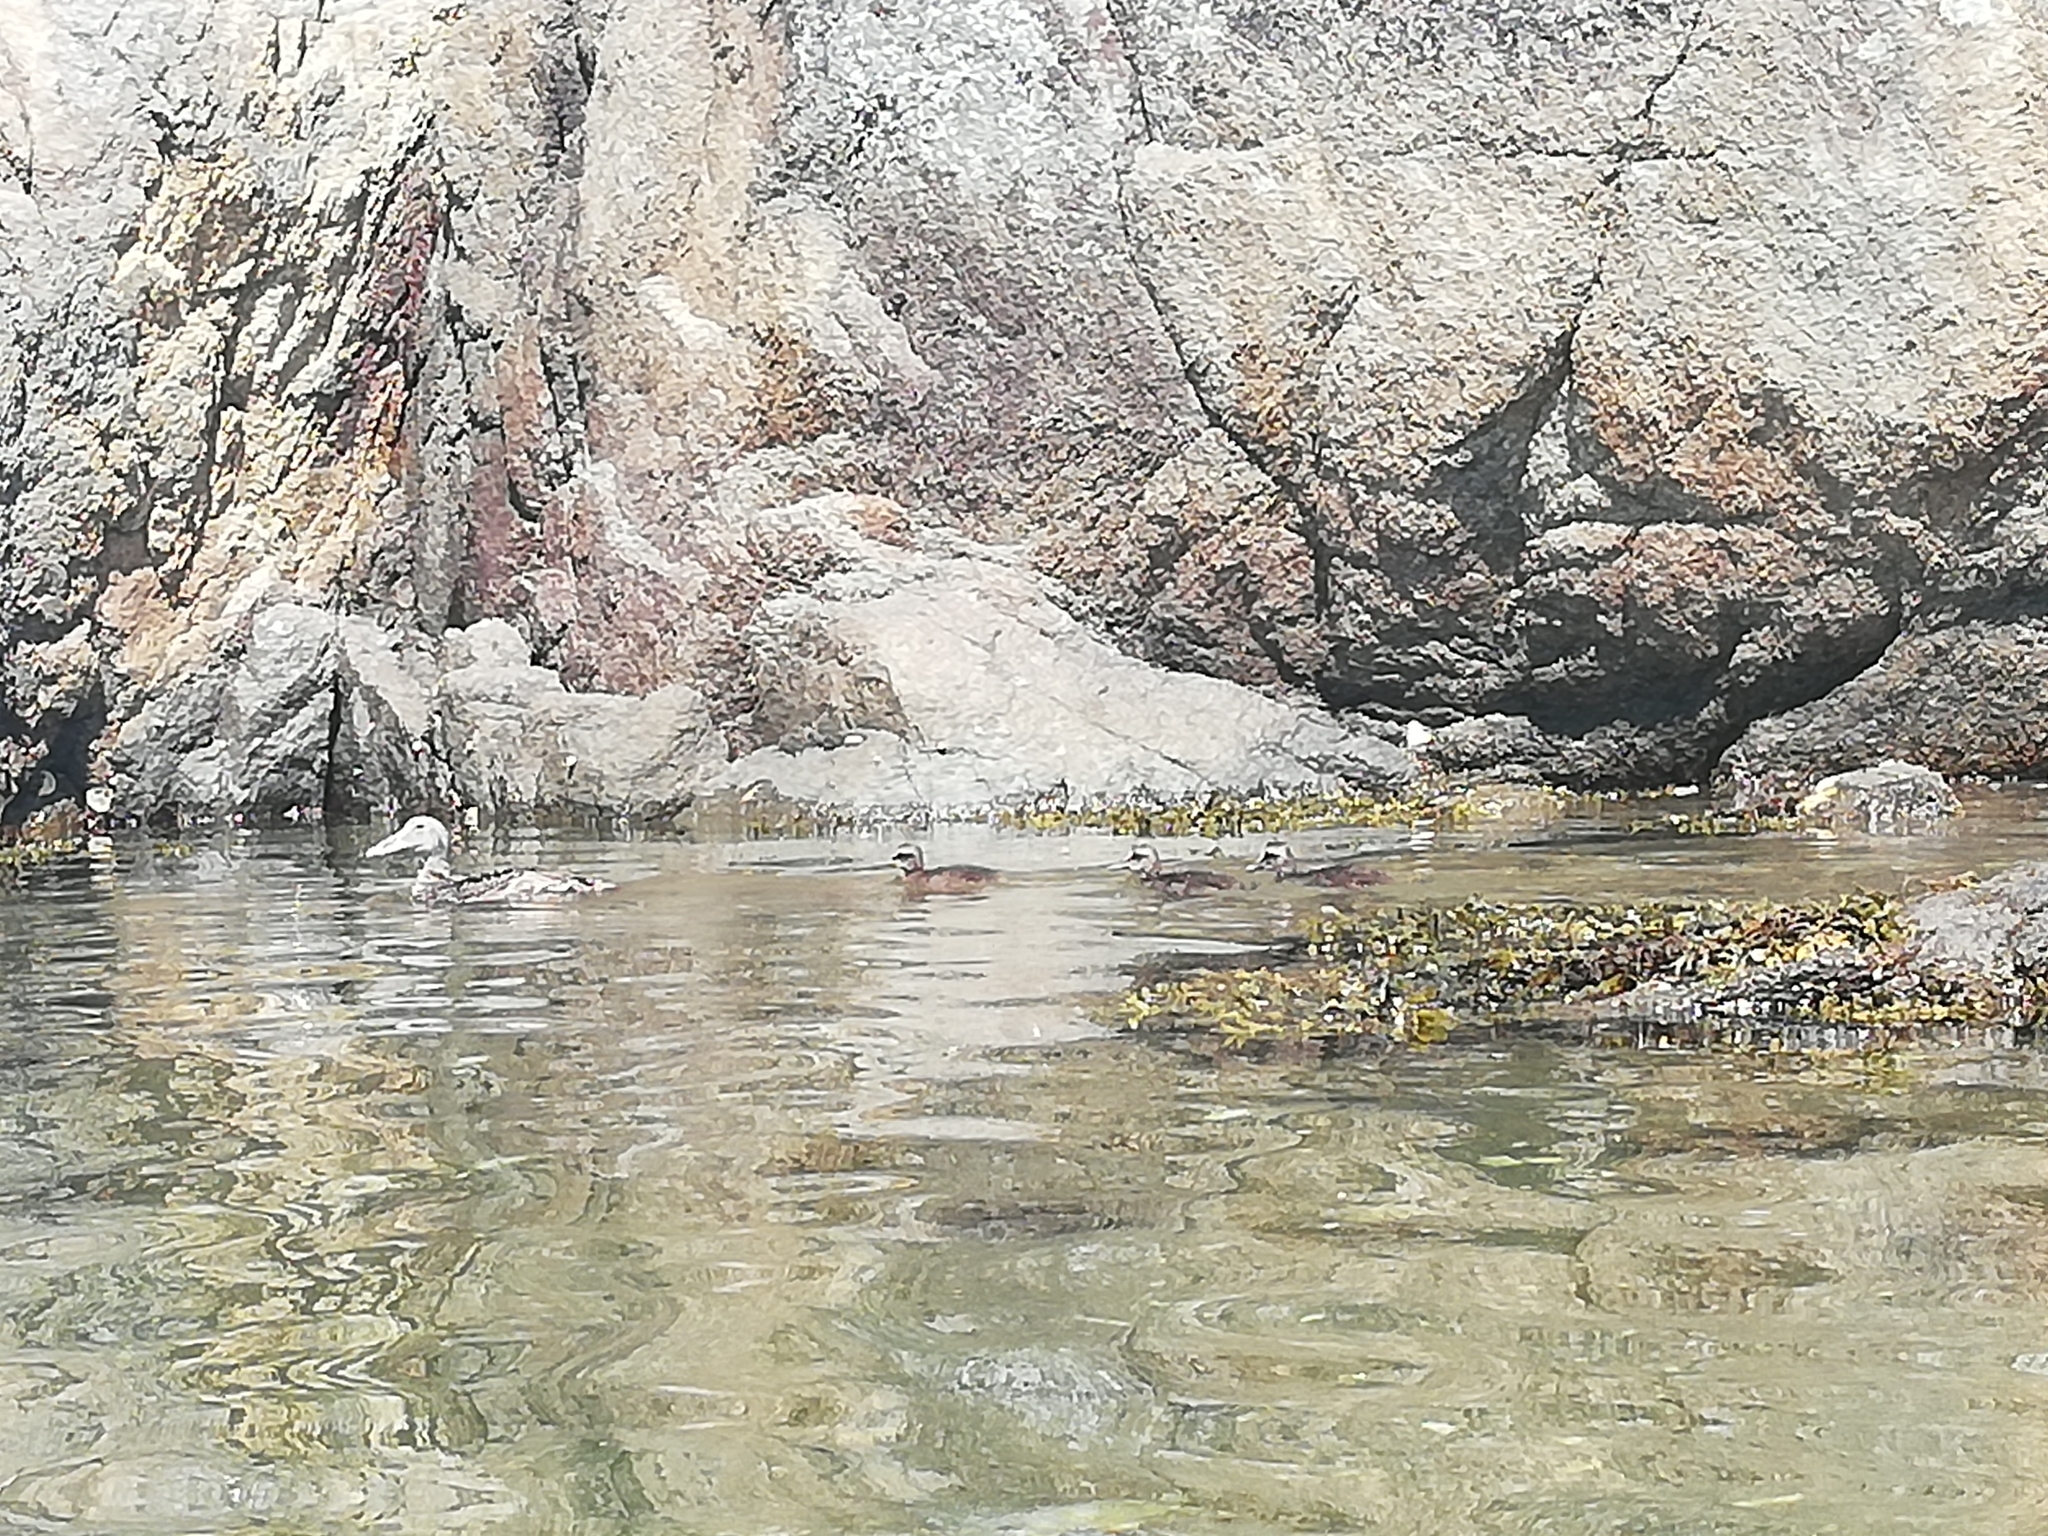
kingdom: Animalia
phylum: Chordata
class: Aves
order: Anseriformes
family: Anatidae
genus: Somateria
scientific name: Somateria mollissima
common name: Common eider
